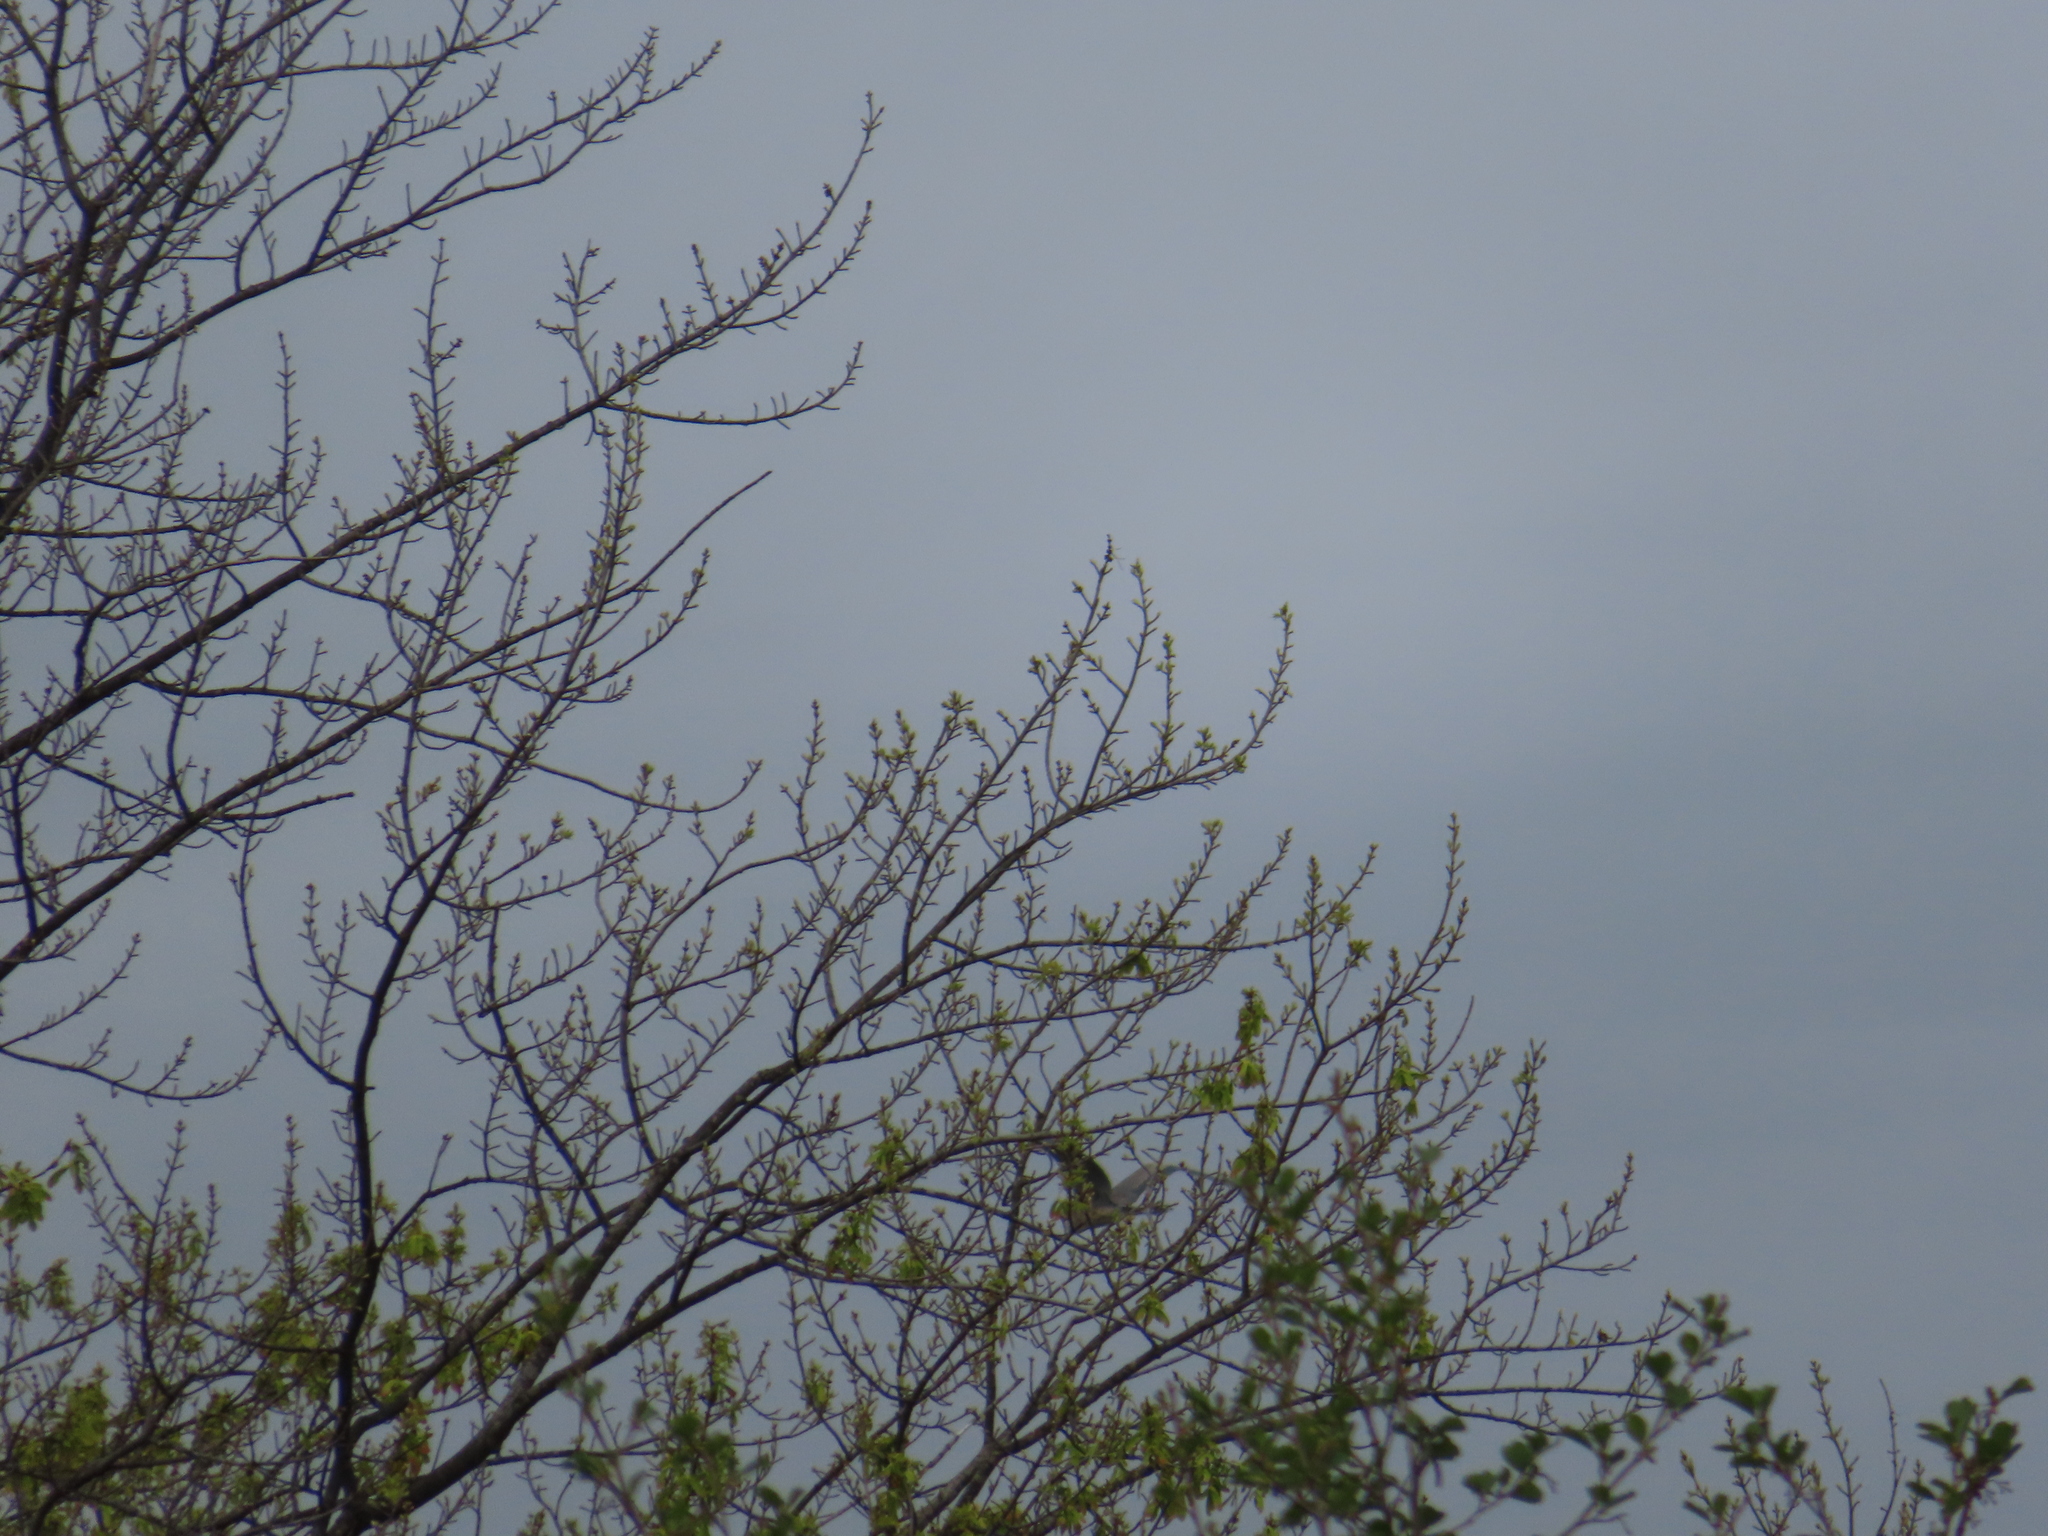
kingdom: Animalia
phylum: Chordata
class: Aves
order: Pelecaniformes
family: Ardeidae
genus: Ardea
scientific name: Ardea herodias
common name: Great blue heron
